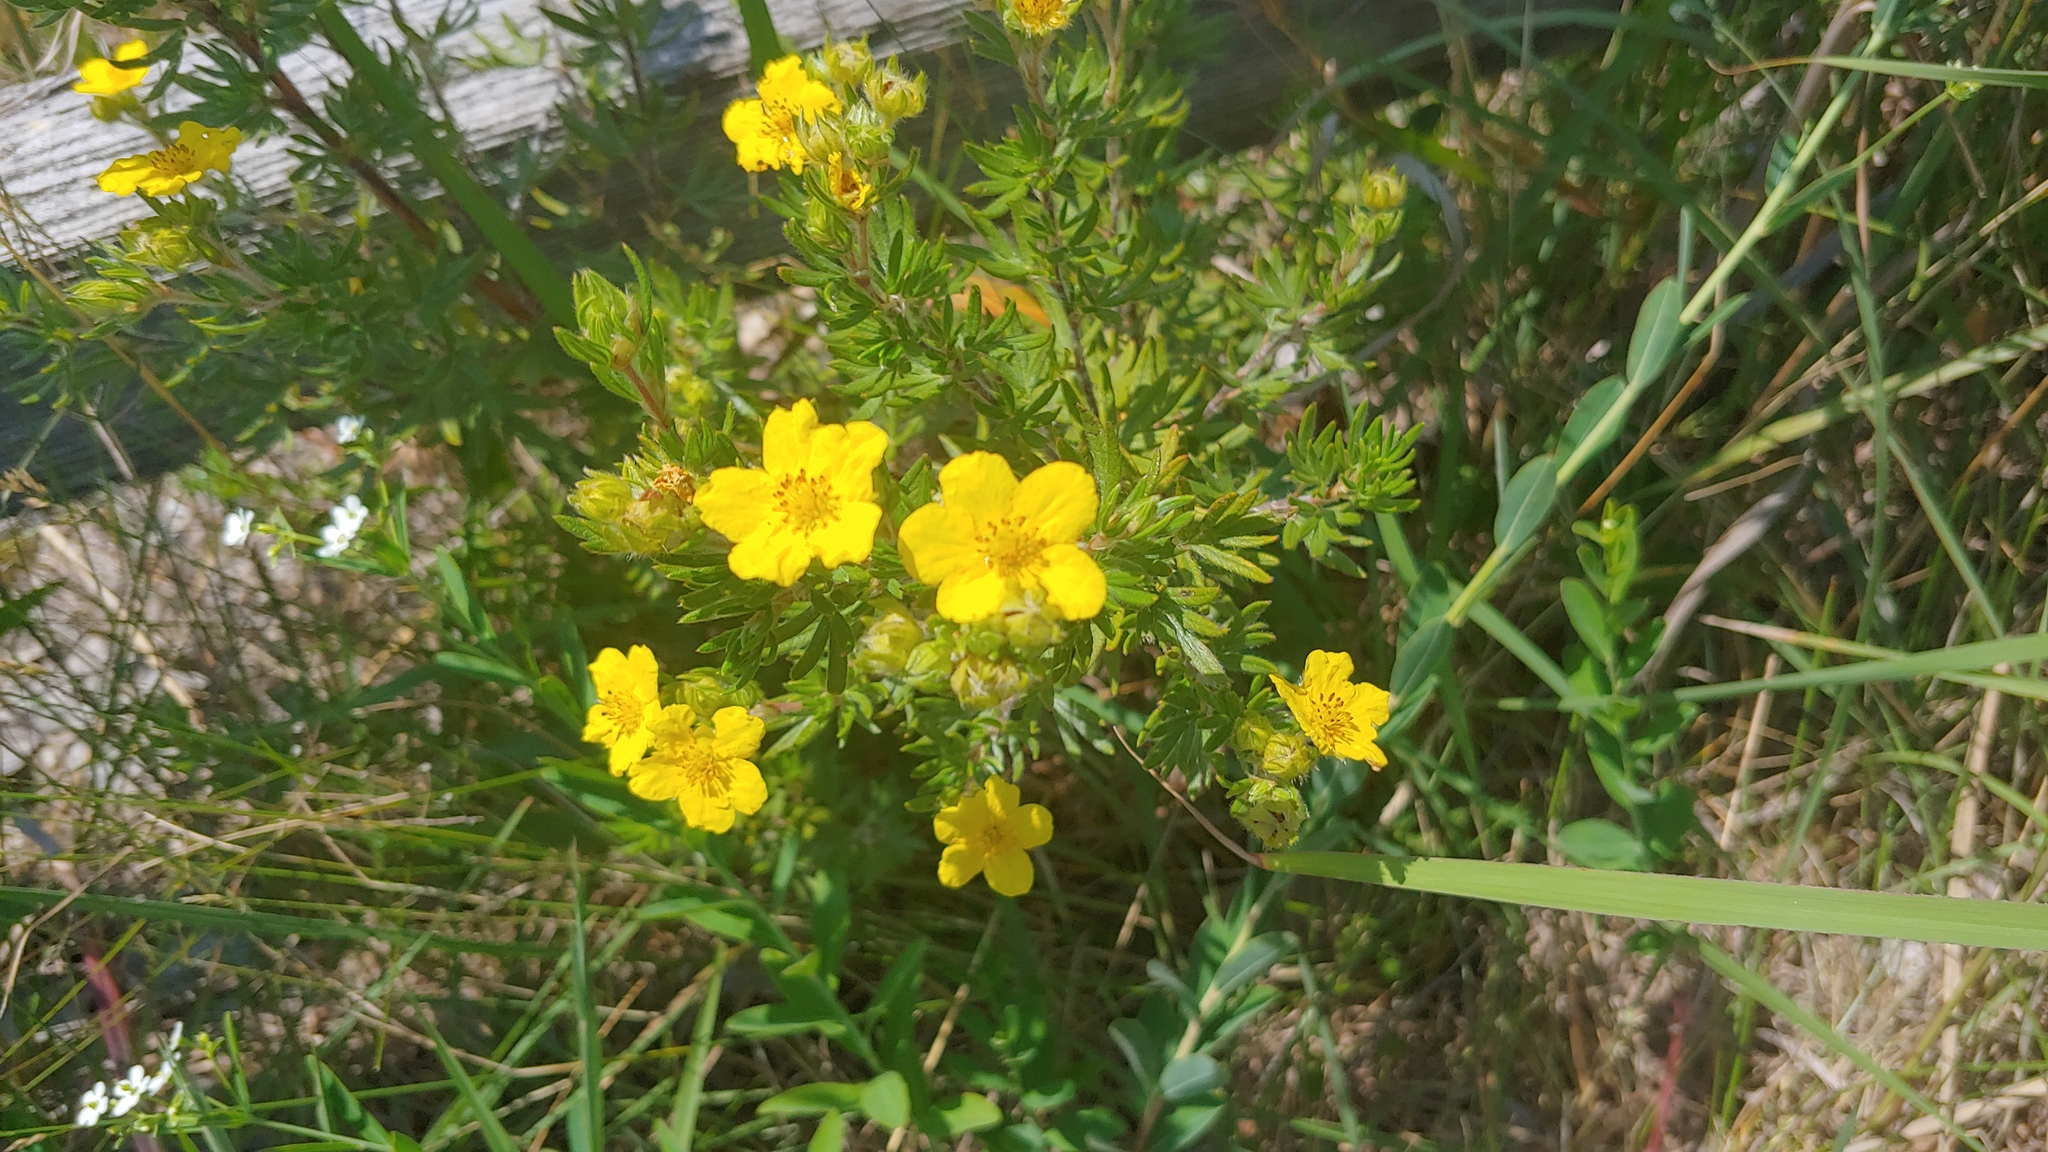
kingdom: Plantae
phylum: Tracheophyta
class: Magnoliopsida
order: Rosales
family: Rosaceae
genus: Dasiphora
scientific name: Dasiphora fruticosa
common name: Shrubby cinquefoil
